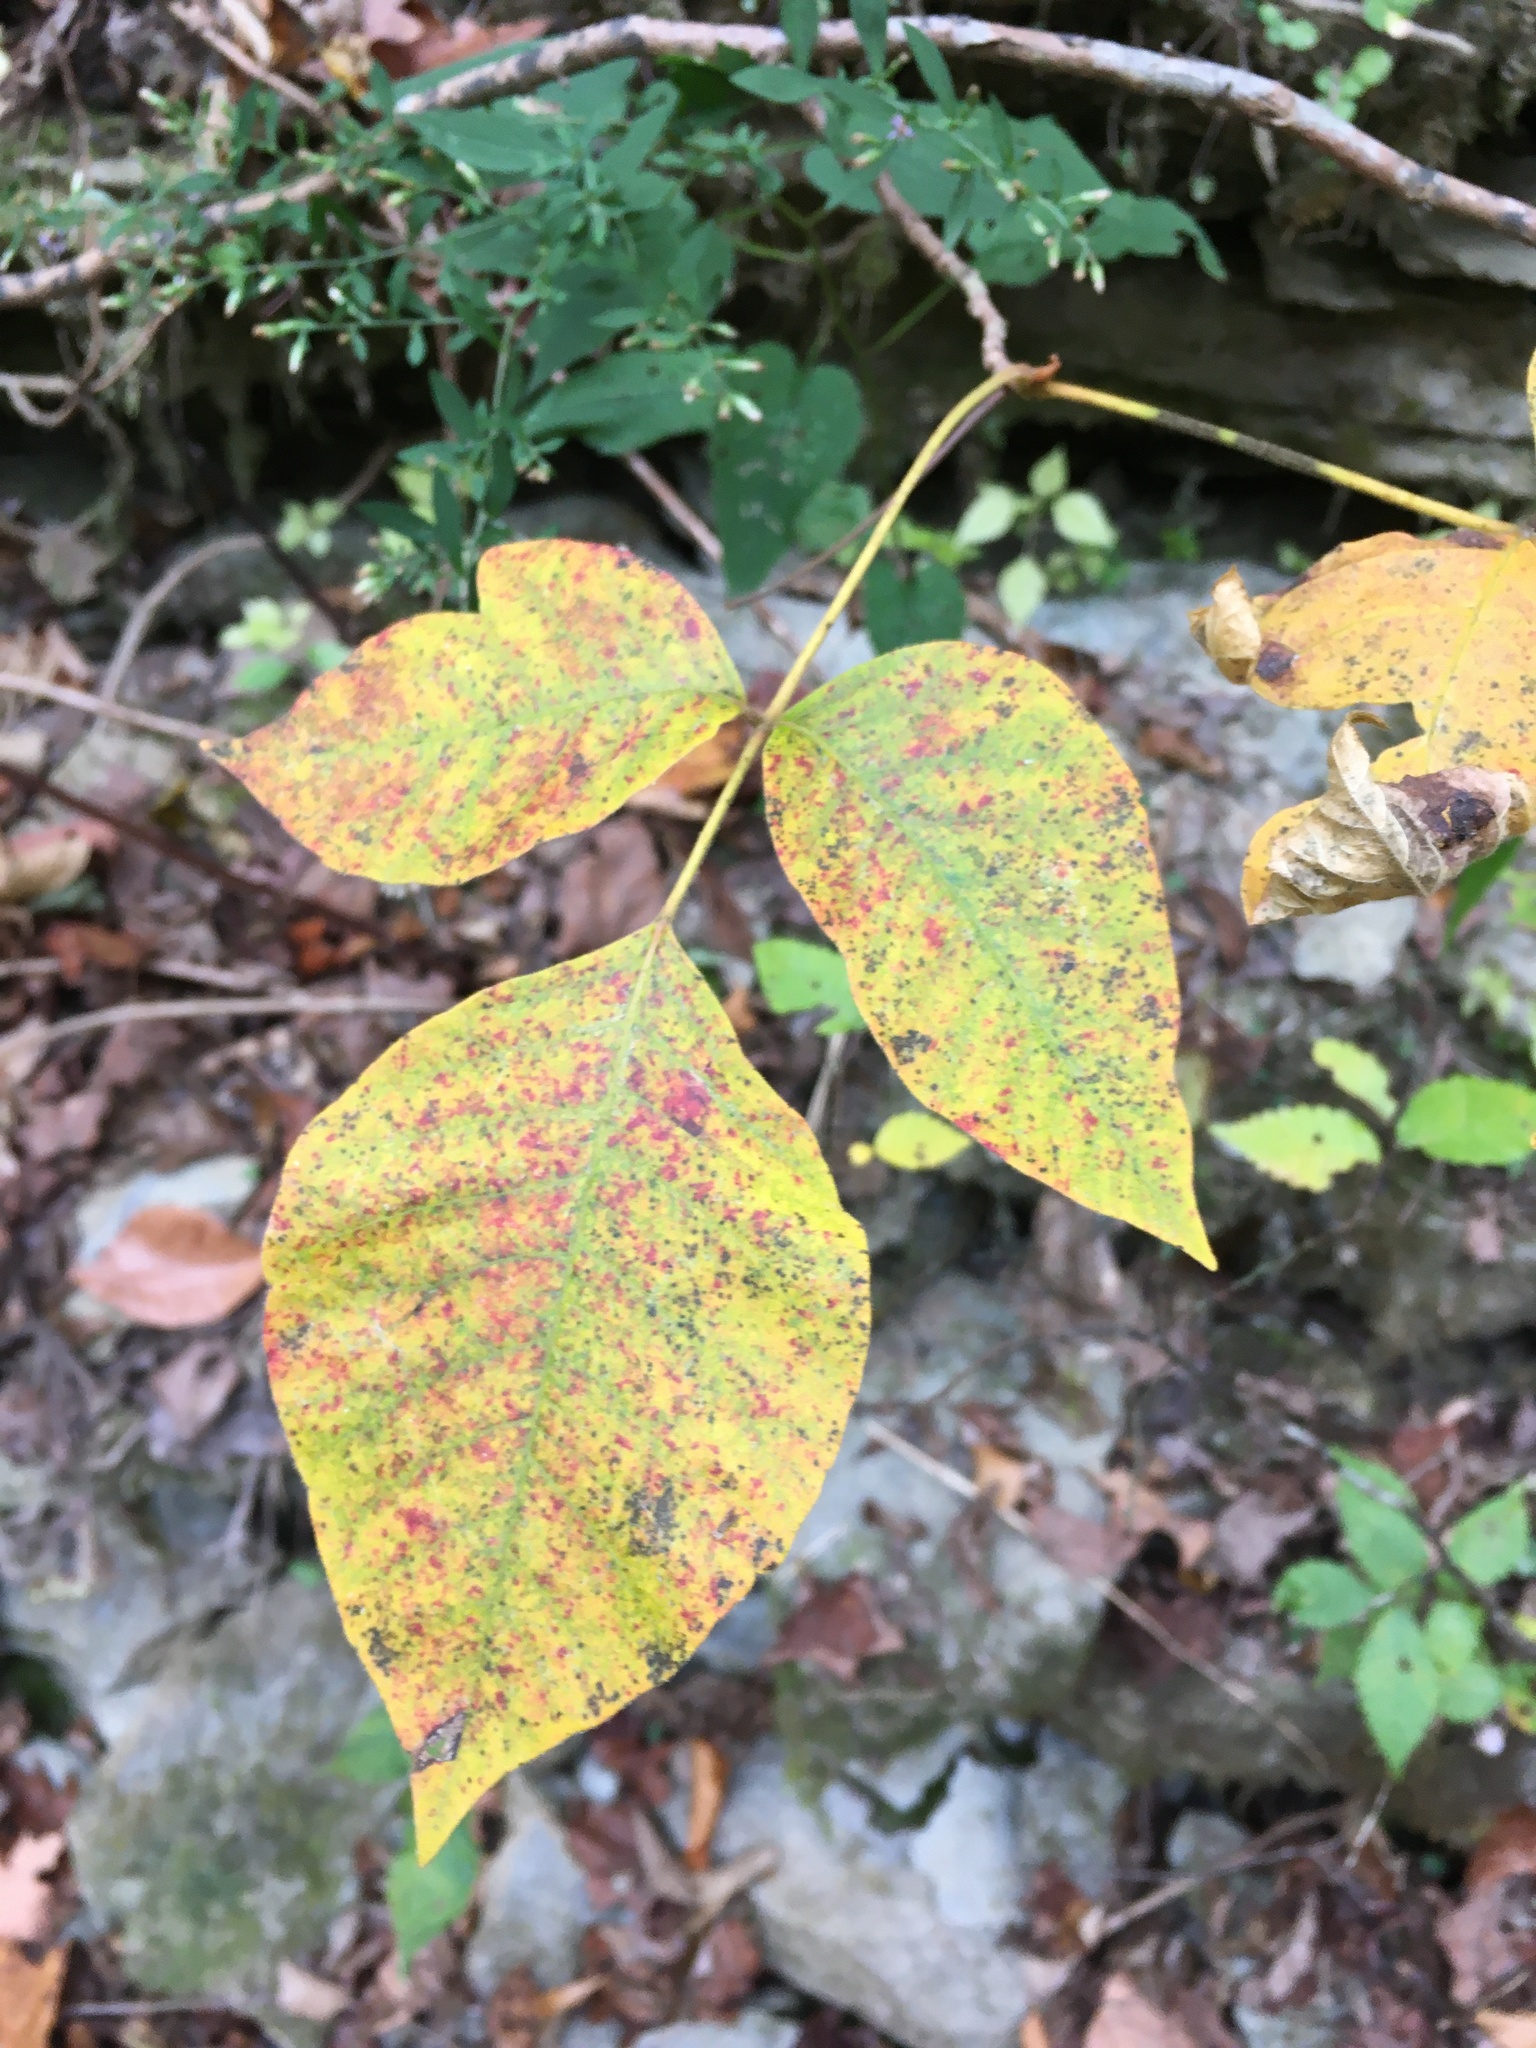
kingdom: Plantae
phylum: Tracheophyta
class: Magnoliopsida
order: Sapindales
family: Anacardiaceae
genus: Toxicodendron
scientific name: Toxicodendron radicans
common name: Poison ivy
